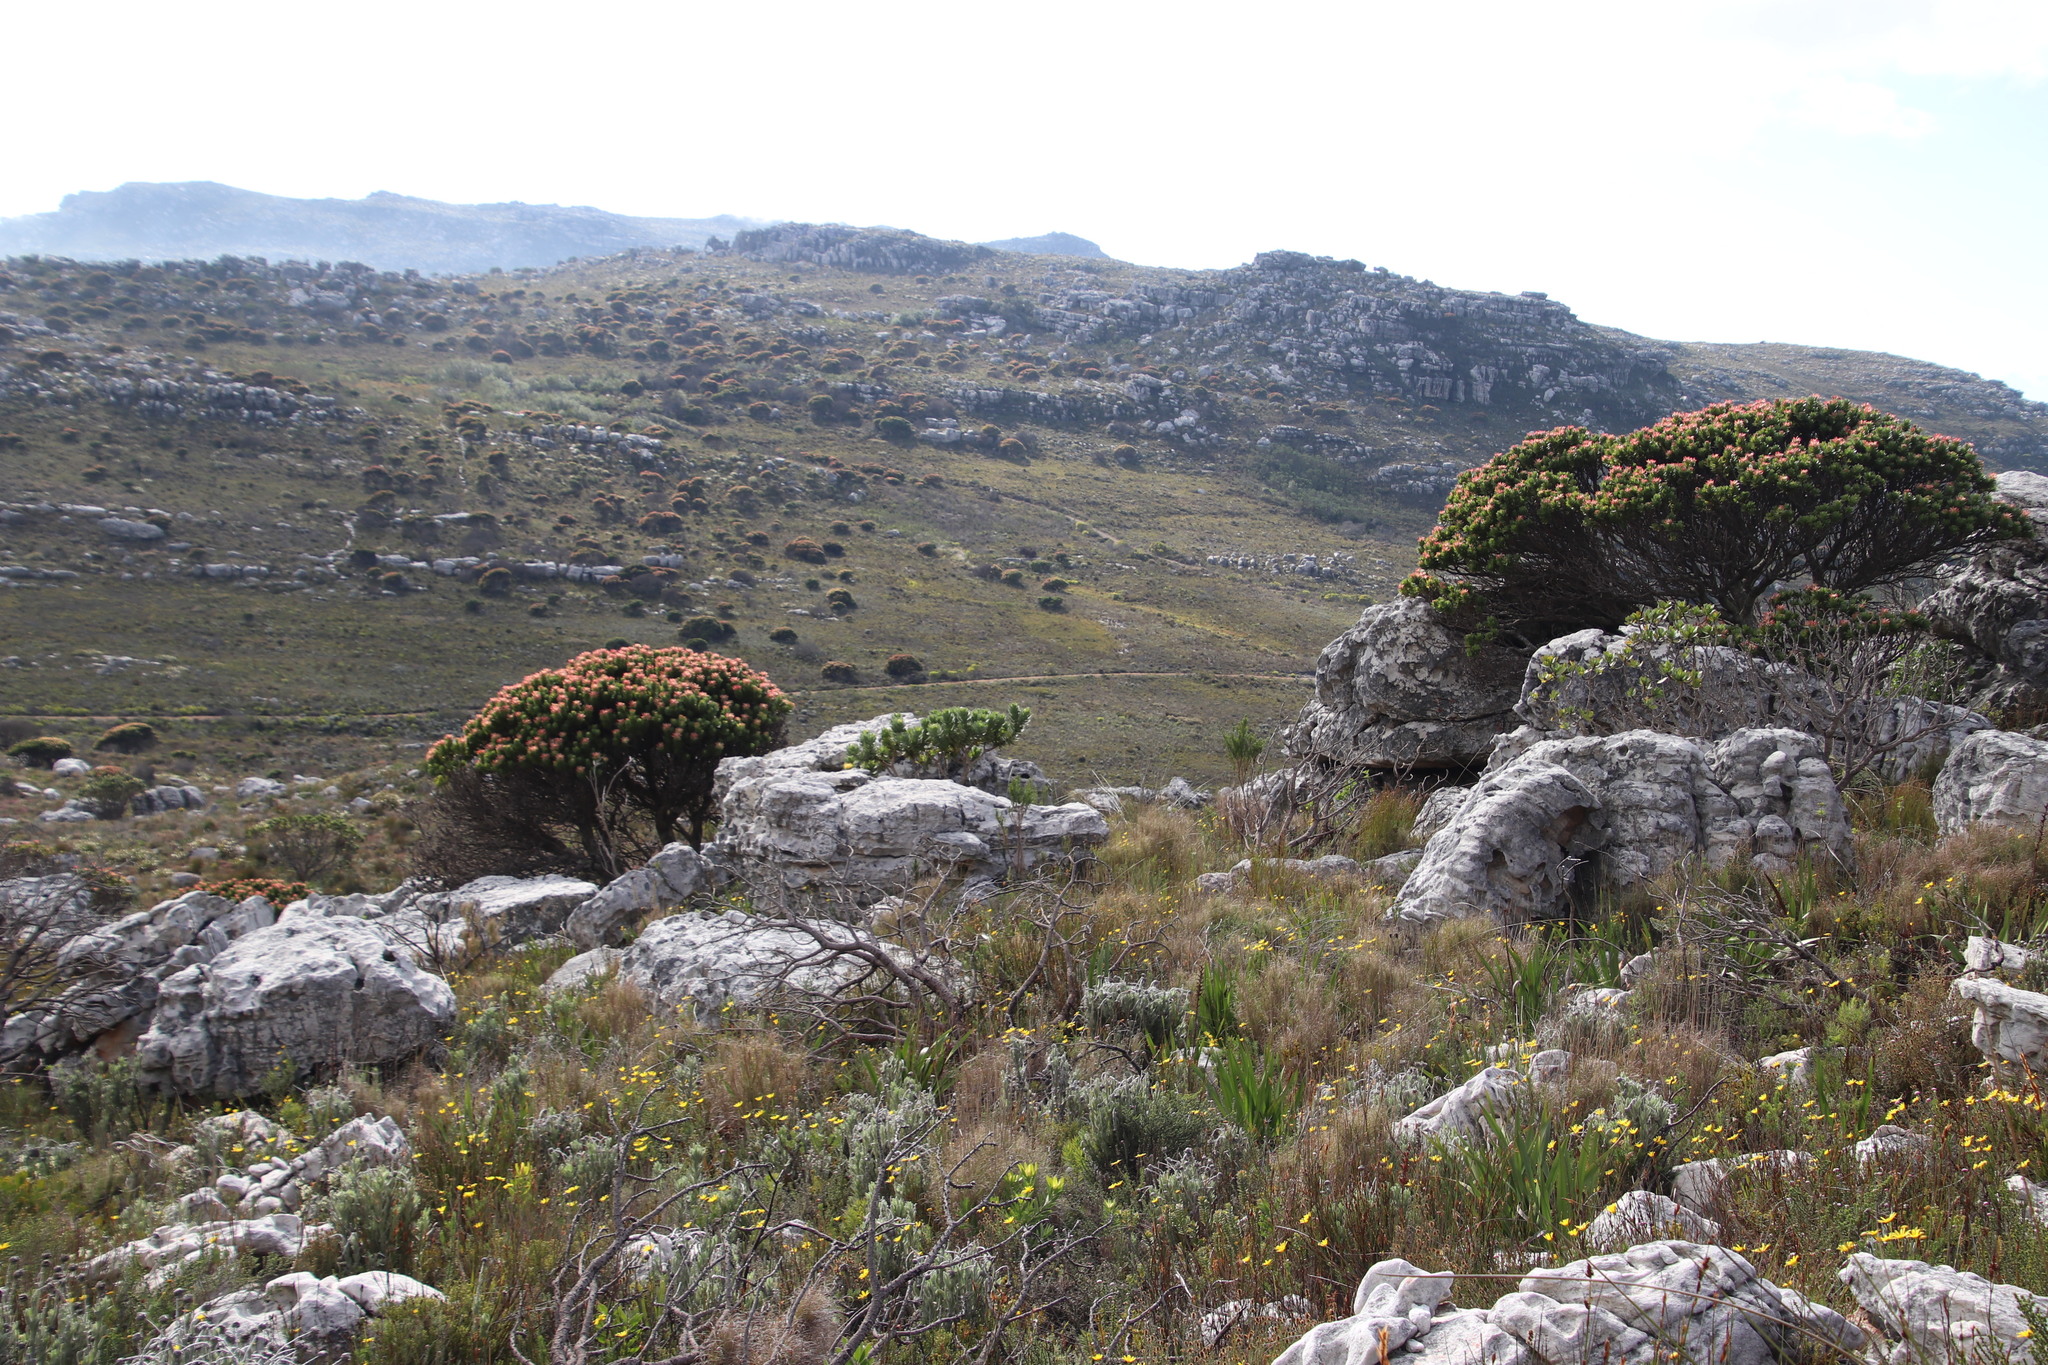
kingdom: Plantae
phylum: Tracheophyta
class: Magnoliopsida
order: Proteales
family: Proteaceae
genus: Mimetes
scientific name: Mimetes fimbriifolius
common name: Fringed bottlebrush
